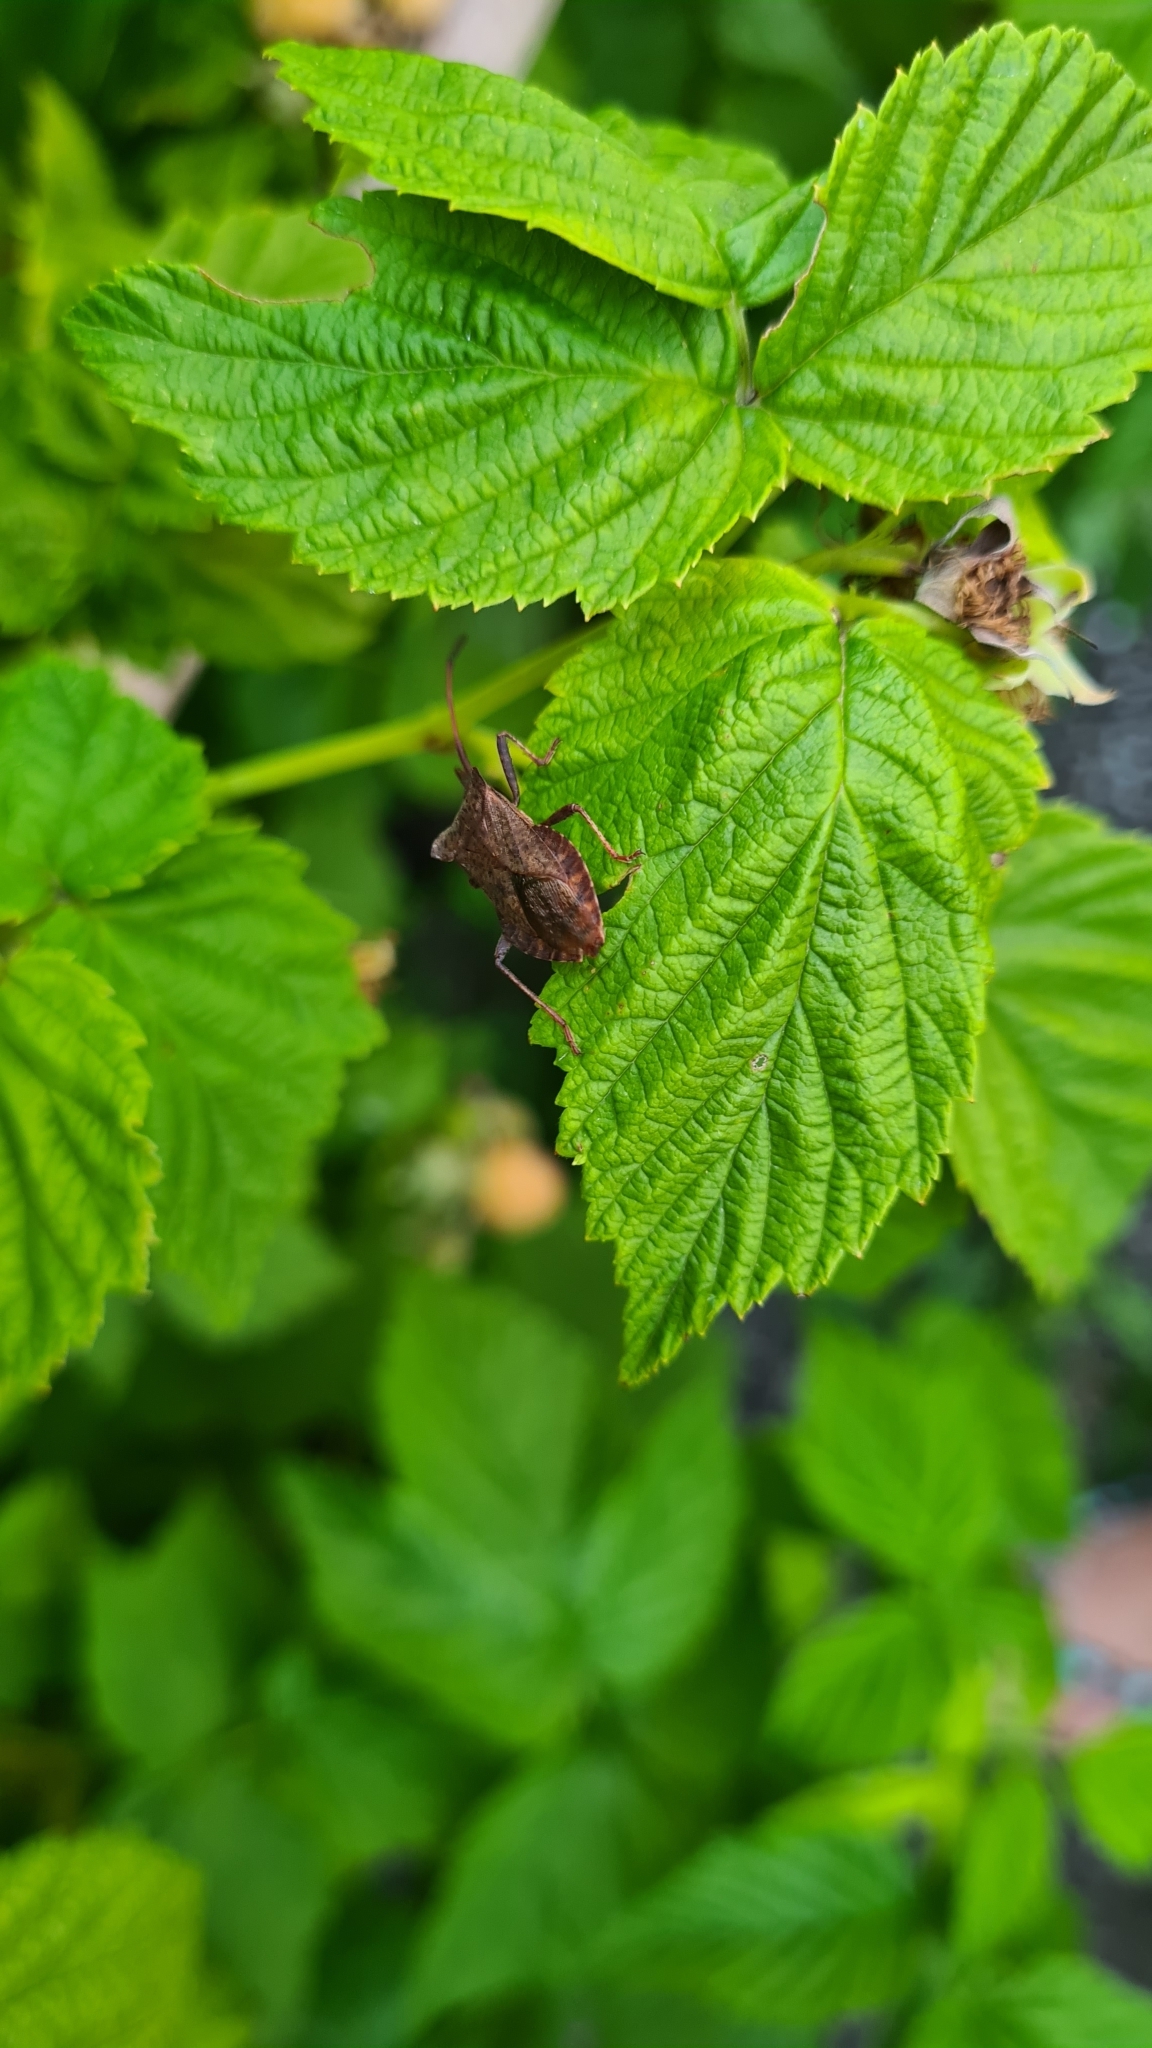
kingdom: Animalia
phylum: Arthropoda
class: Insecta
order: Hemiptera
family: Coreidae
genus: Coreus
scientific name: Coreus marginatus
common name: Dock bug
